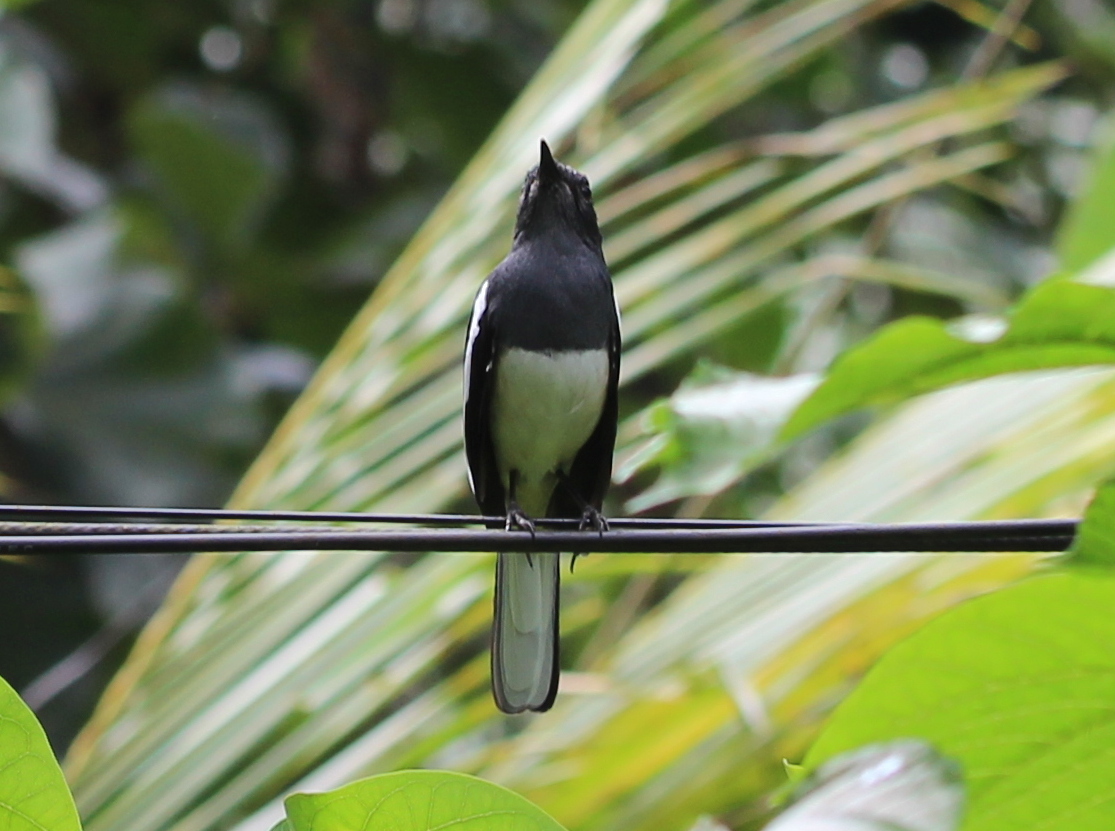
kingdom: Animalia
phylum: Chordata
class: Aves
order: Passeriformes
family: Muscicapidae
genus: Copsychus
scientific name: Copsychus saularis
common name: Oriental magpie-robin
